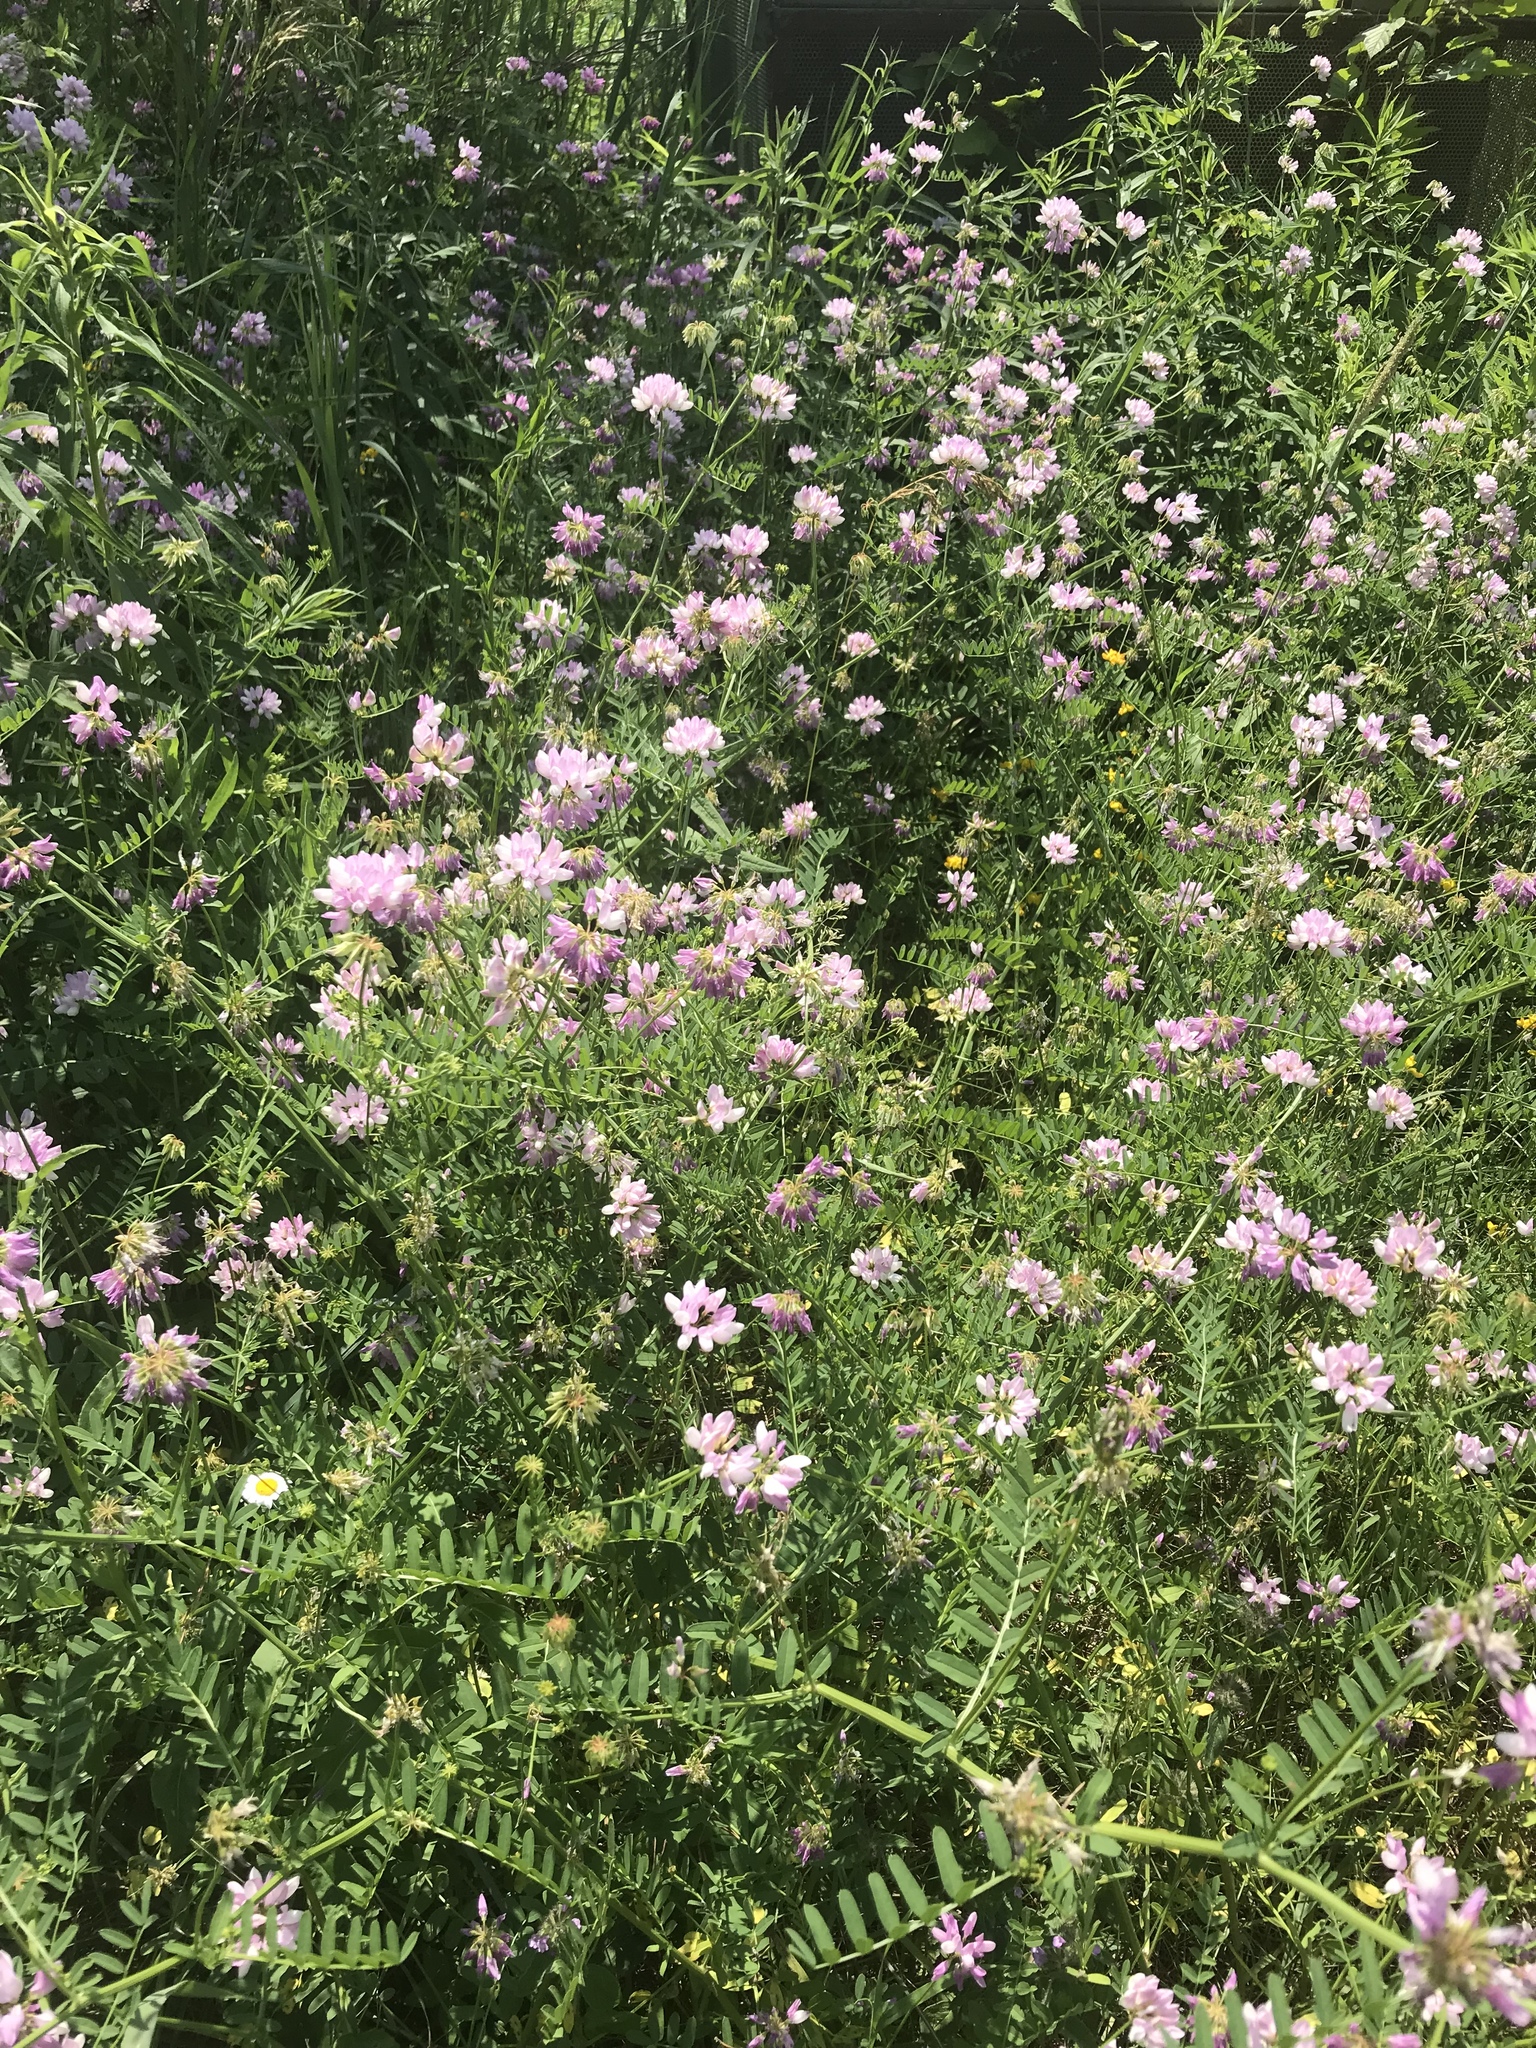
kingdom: Plantae
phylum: Tracheophyta
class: Magnoliopsida
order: Fabales
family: Fabaceae
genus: Coronilla
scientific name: Coronilla varia
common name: Crownvetch
